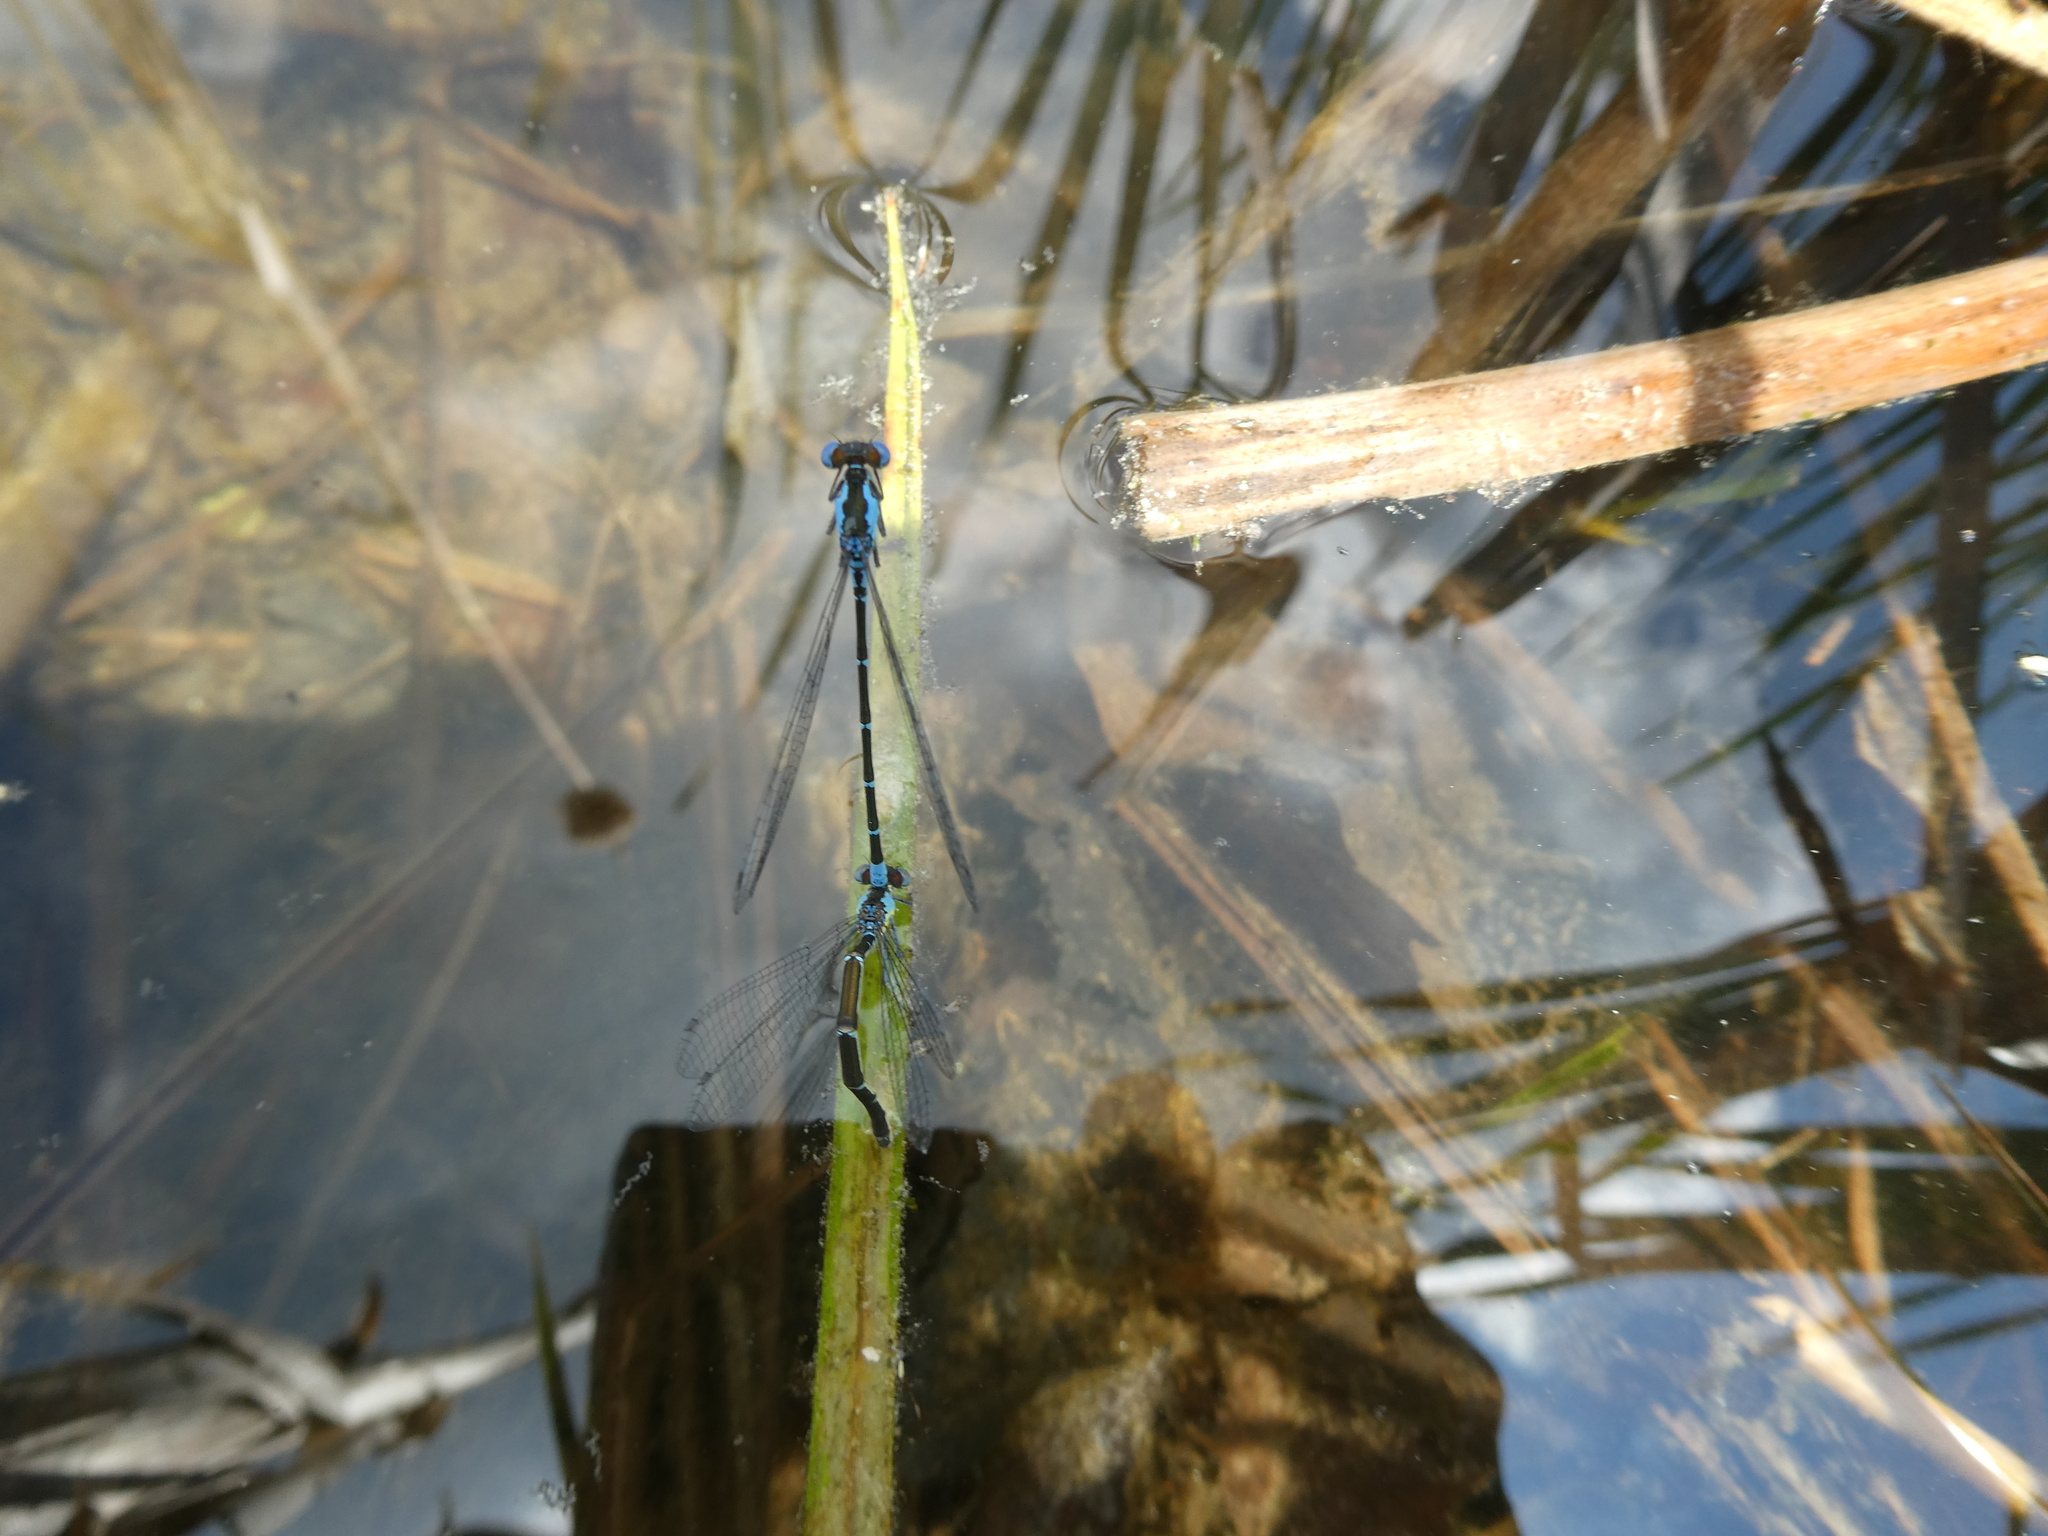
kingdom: Animalia
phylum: Arthropoda
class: Insecta
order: Odonata
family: Coenagrionidae
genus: Chromagrion
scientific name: Chromagrion conditum
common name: Aurora damsel
